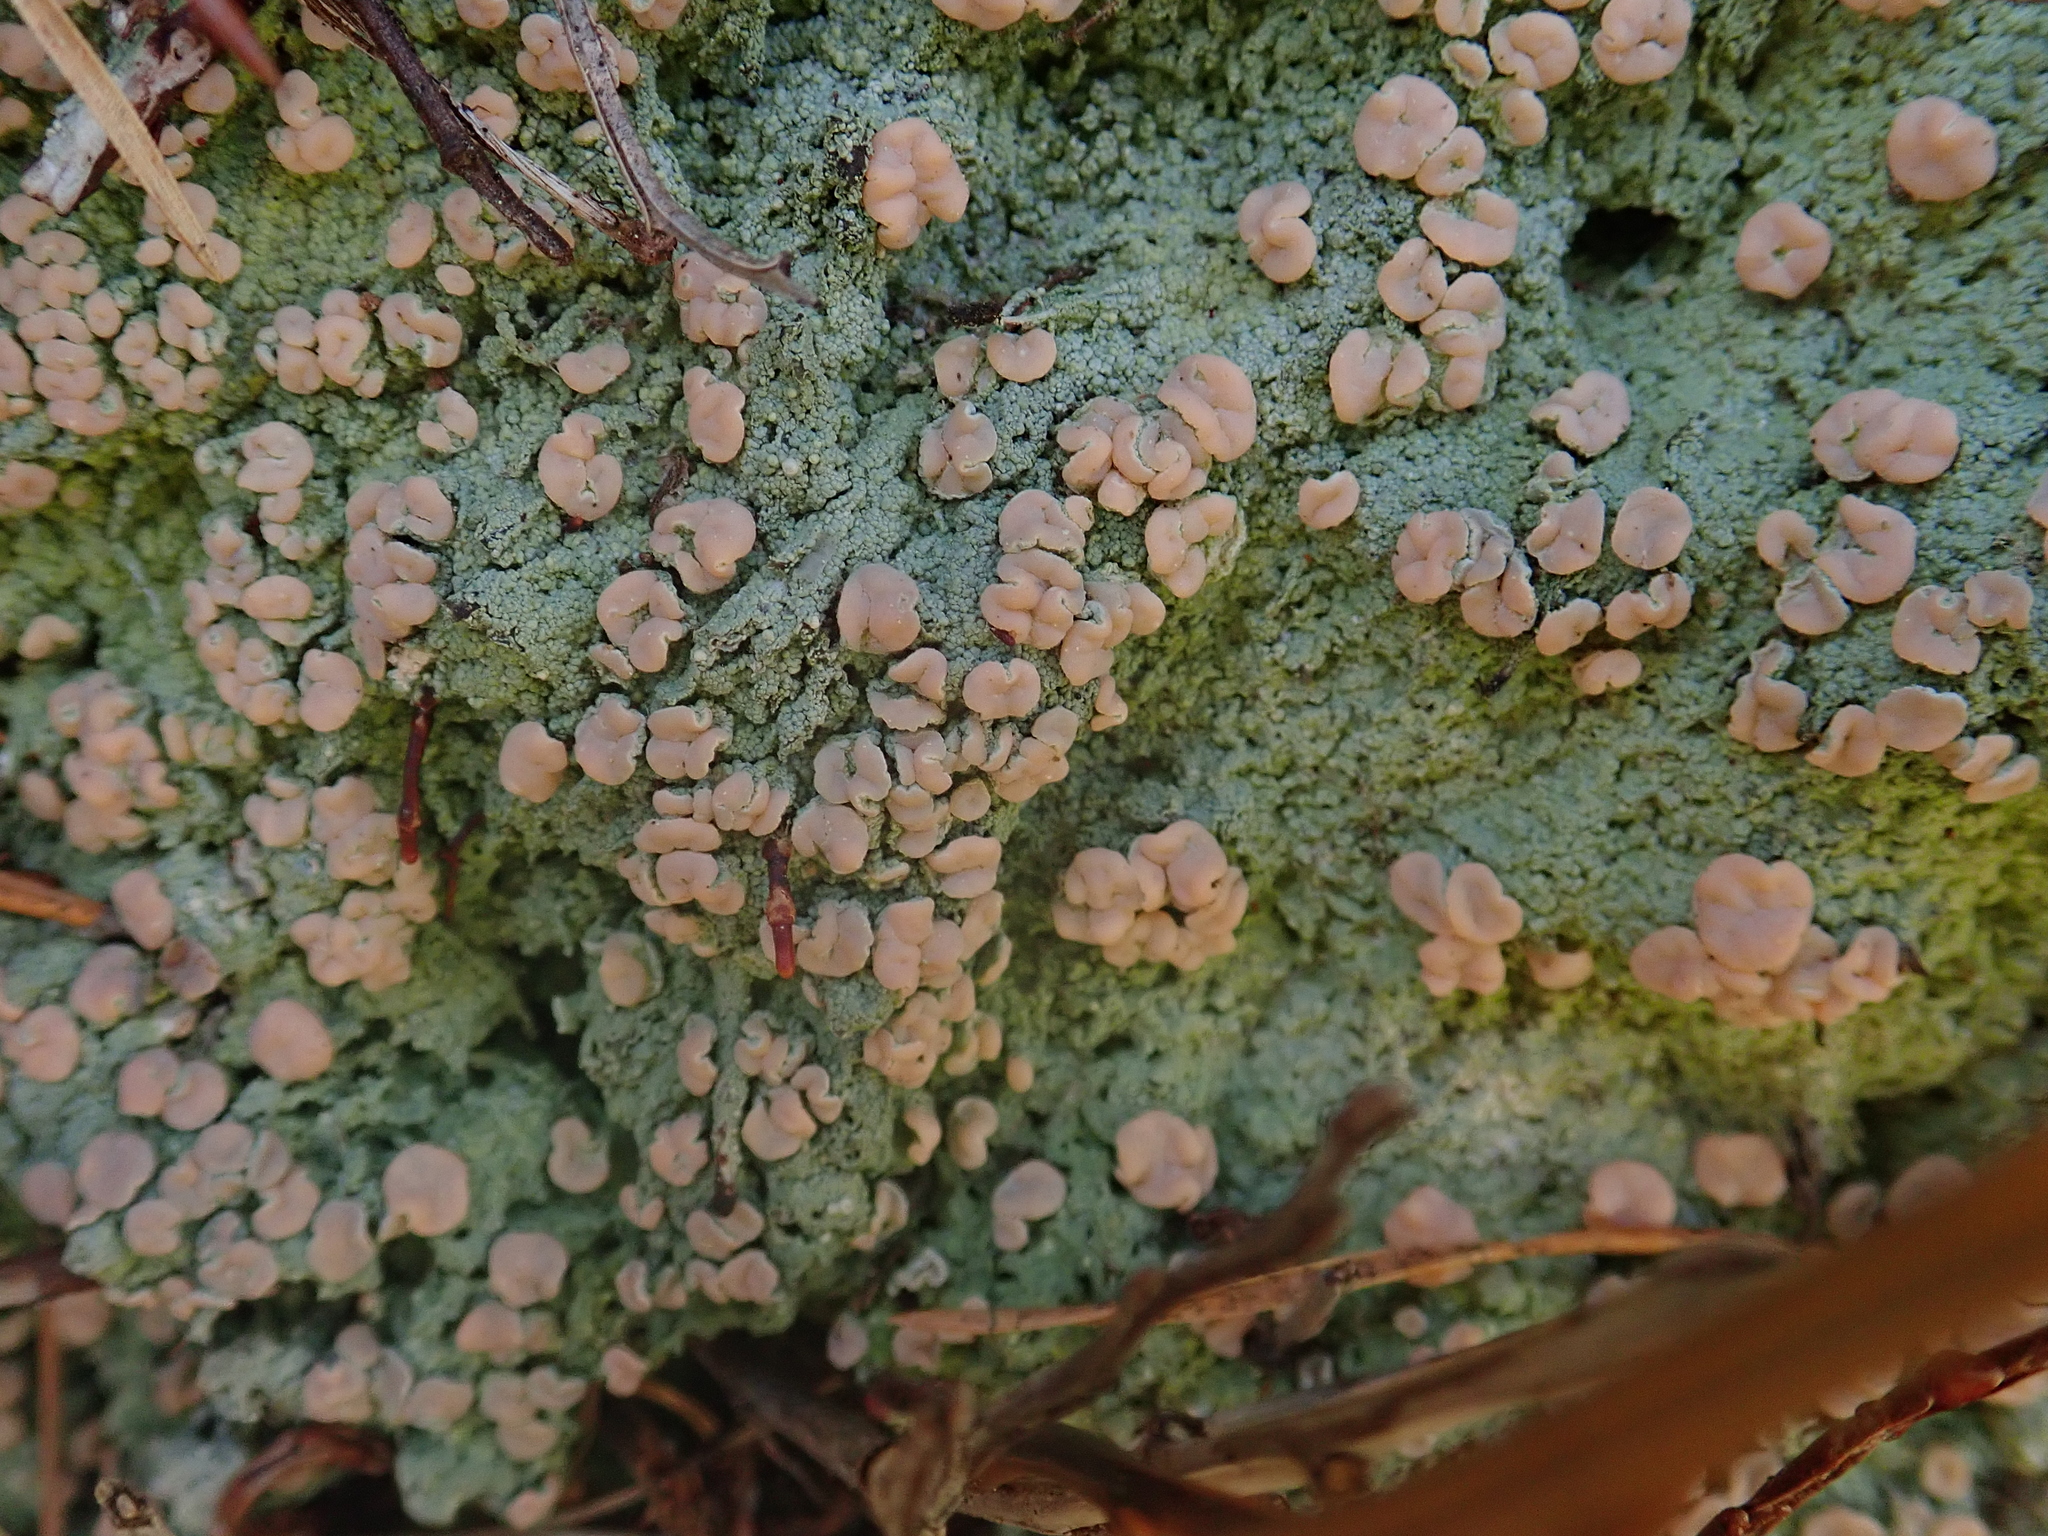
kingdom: Fungi
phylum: Ascomycota
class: Lecanoromycetes
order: Pertusariales
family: Icmadophilaceae
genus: Icmadophila
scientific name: Icmadophila ericetorum
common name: Candy lichen
